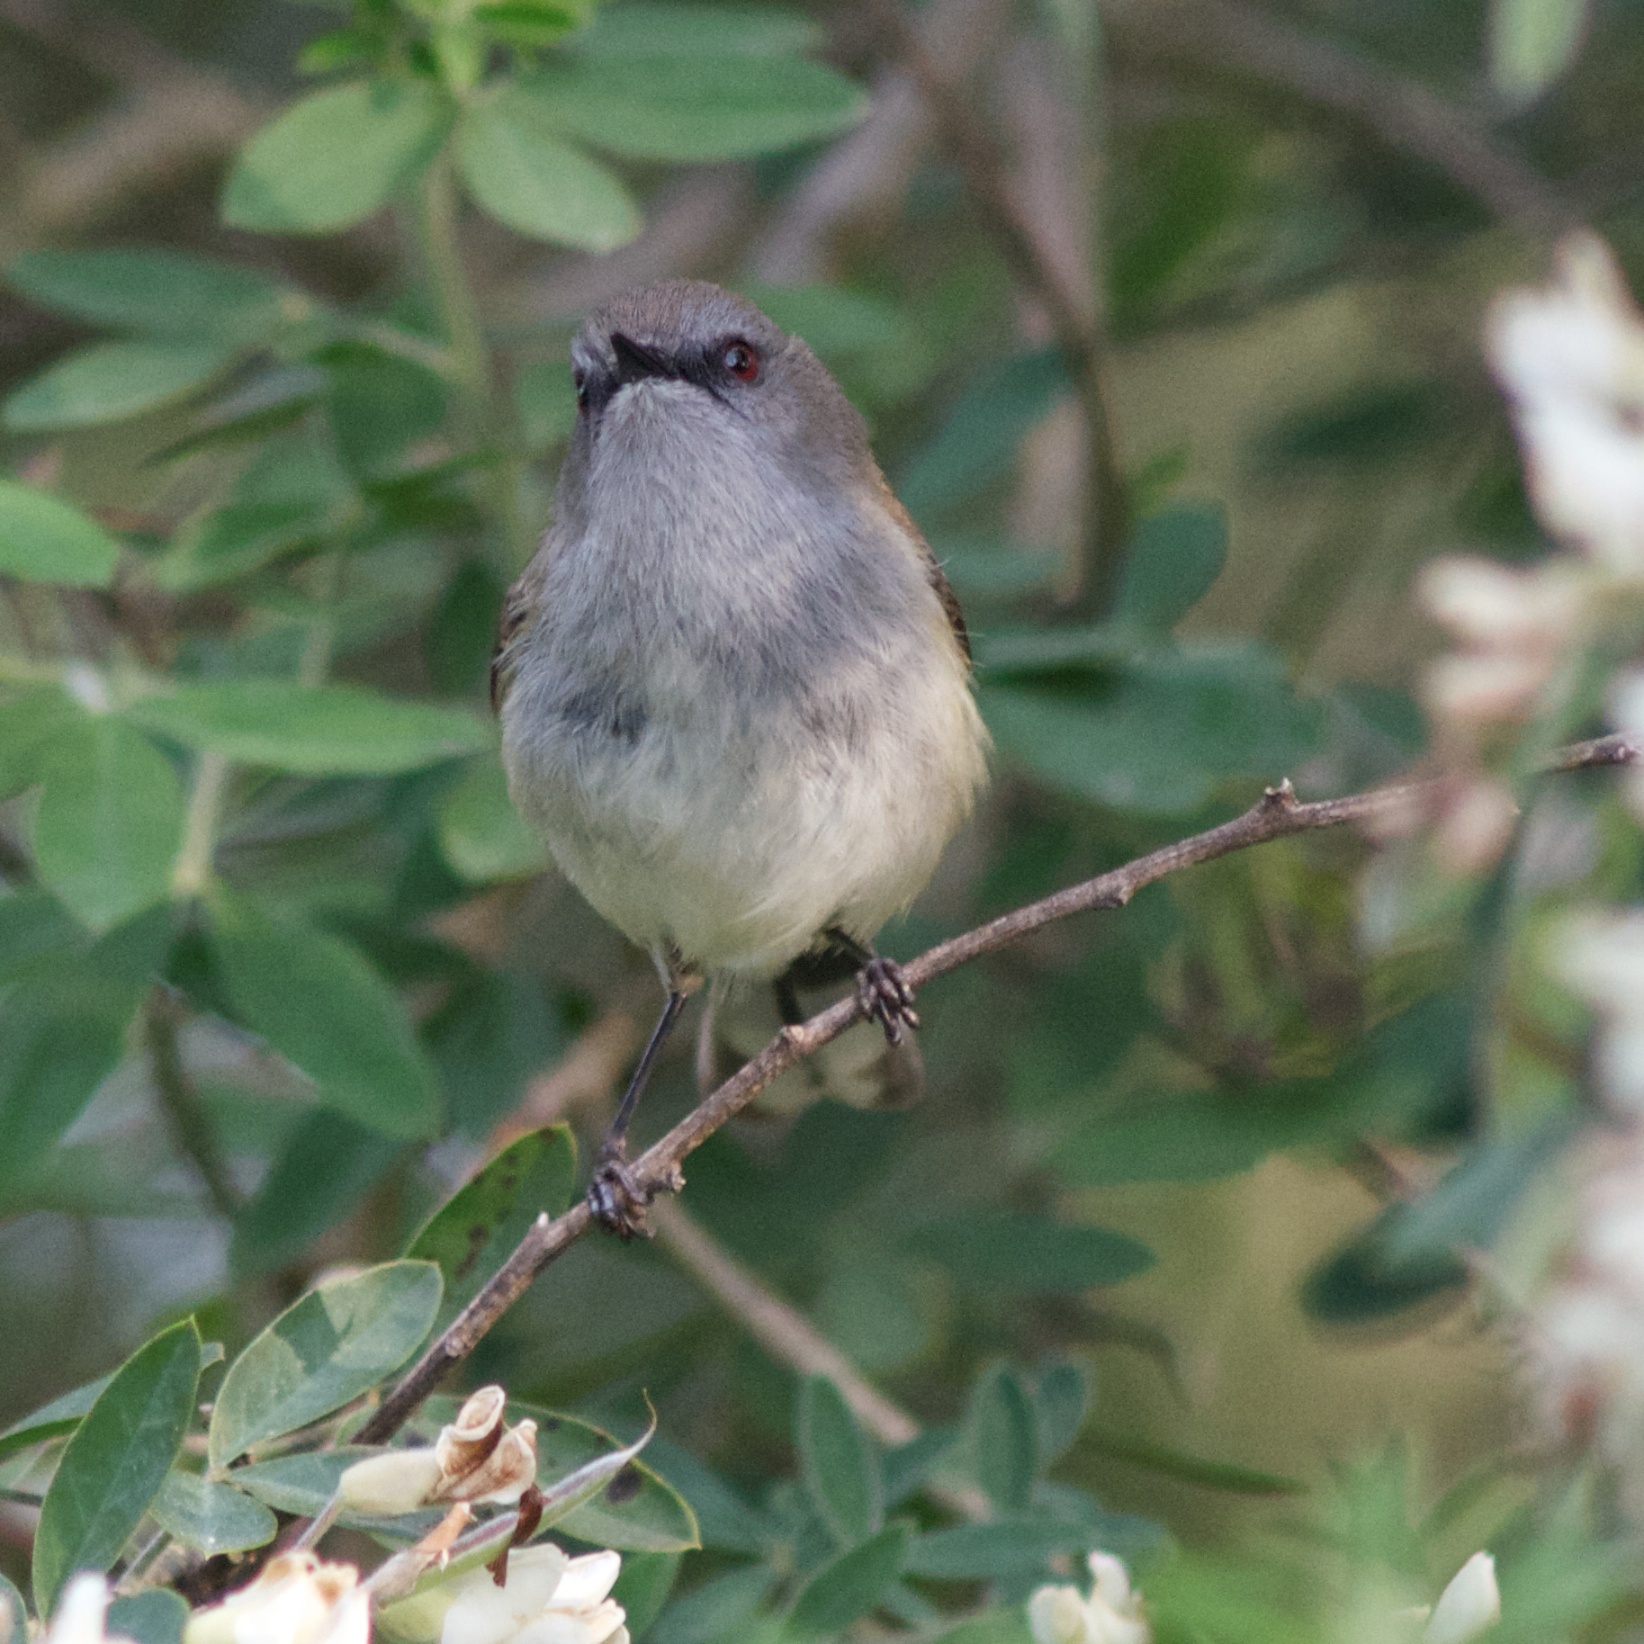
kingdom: Animalia
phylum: Chordata
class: Aves
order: Passeriformes
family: Acanthizidae
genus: Gerygone
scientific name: Gerygone igata
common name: Grey gerygone
